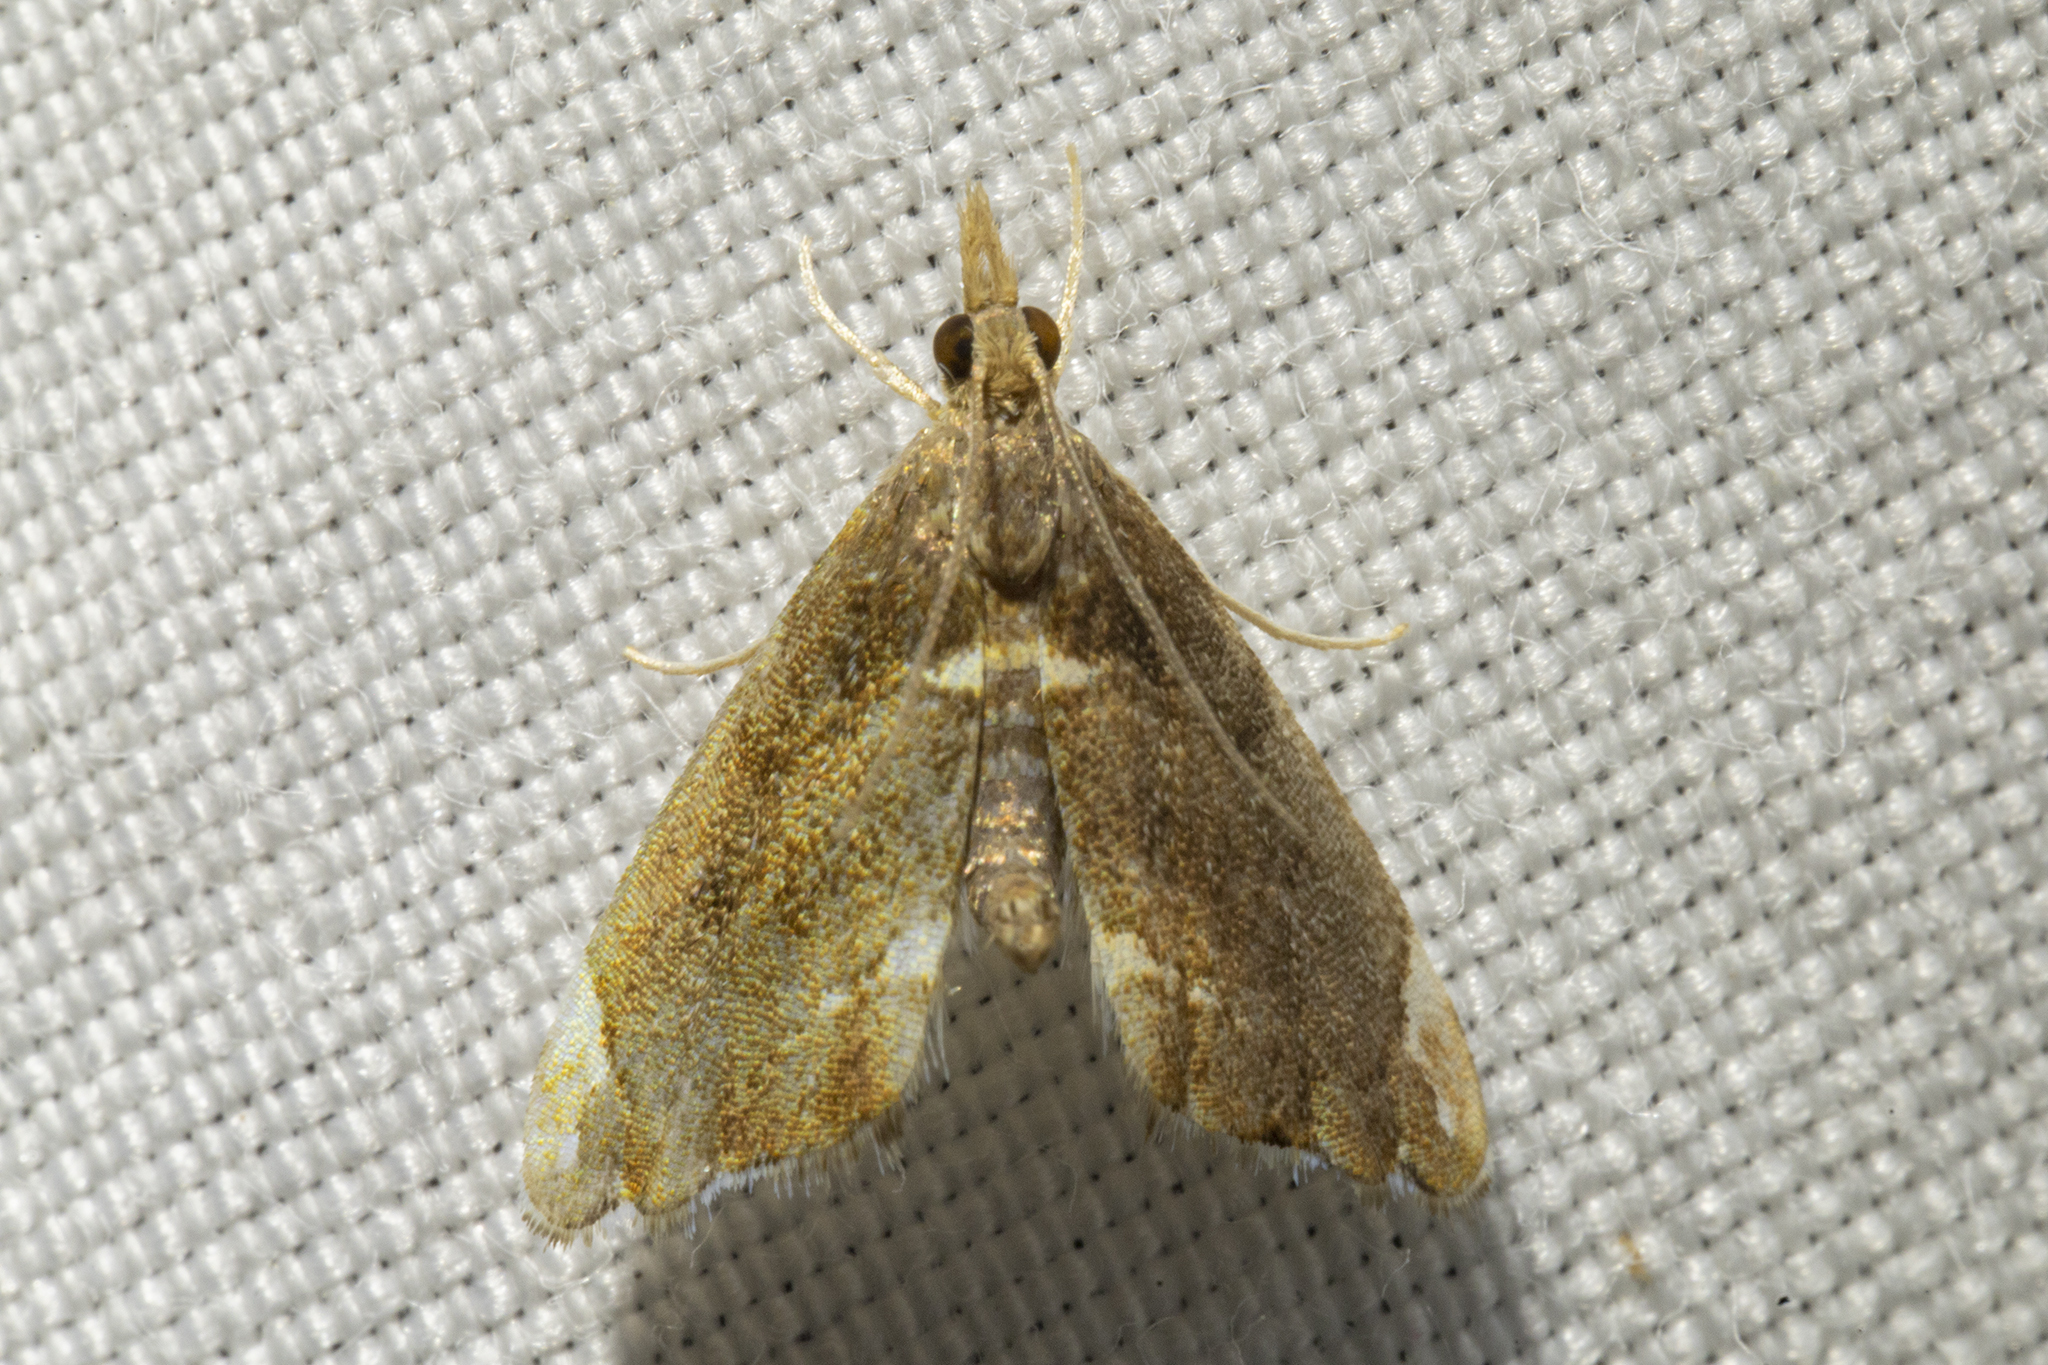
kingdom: Animalia
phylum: Arthropoda
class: Insecta
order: Lepidoptera
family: Crambidae
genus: Glaucocharis
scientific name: Glaucocharis pyrsophanes
